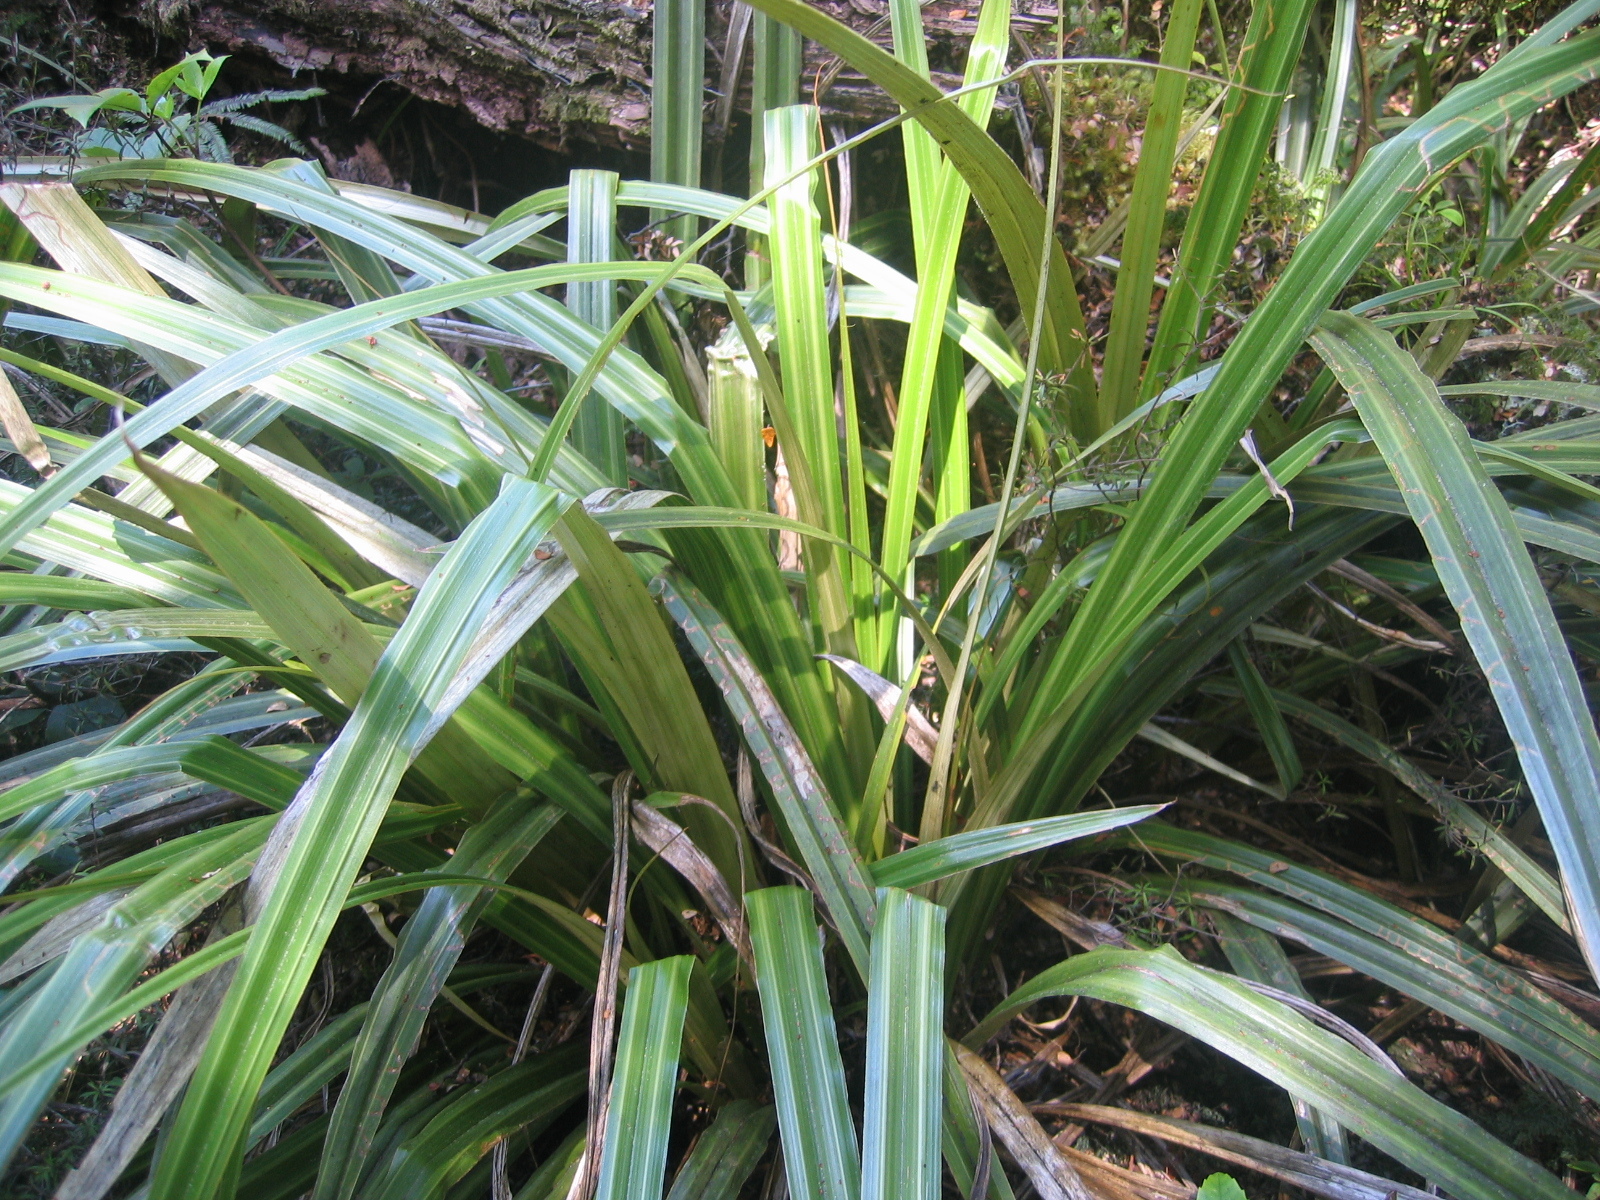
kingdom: Plantae
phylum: Tracheophyta
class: Liliopsida
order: Asparagales
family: Asteliaceae
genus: Astelia
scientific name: Astelia nervosa
